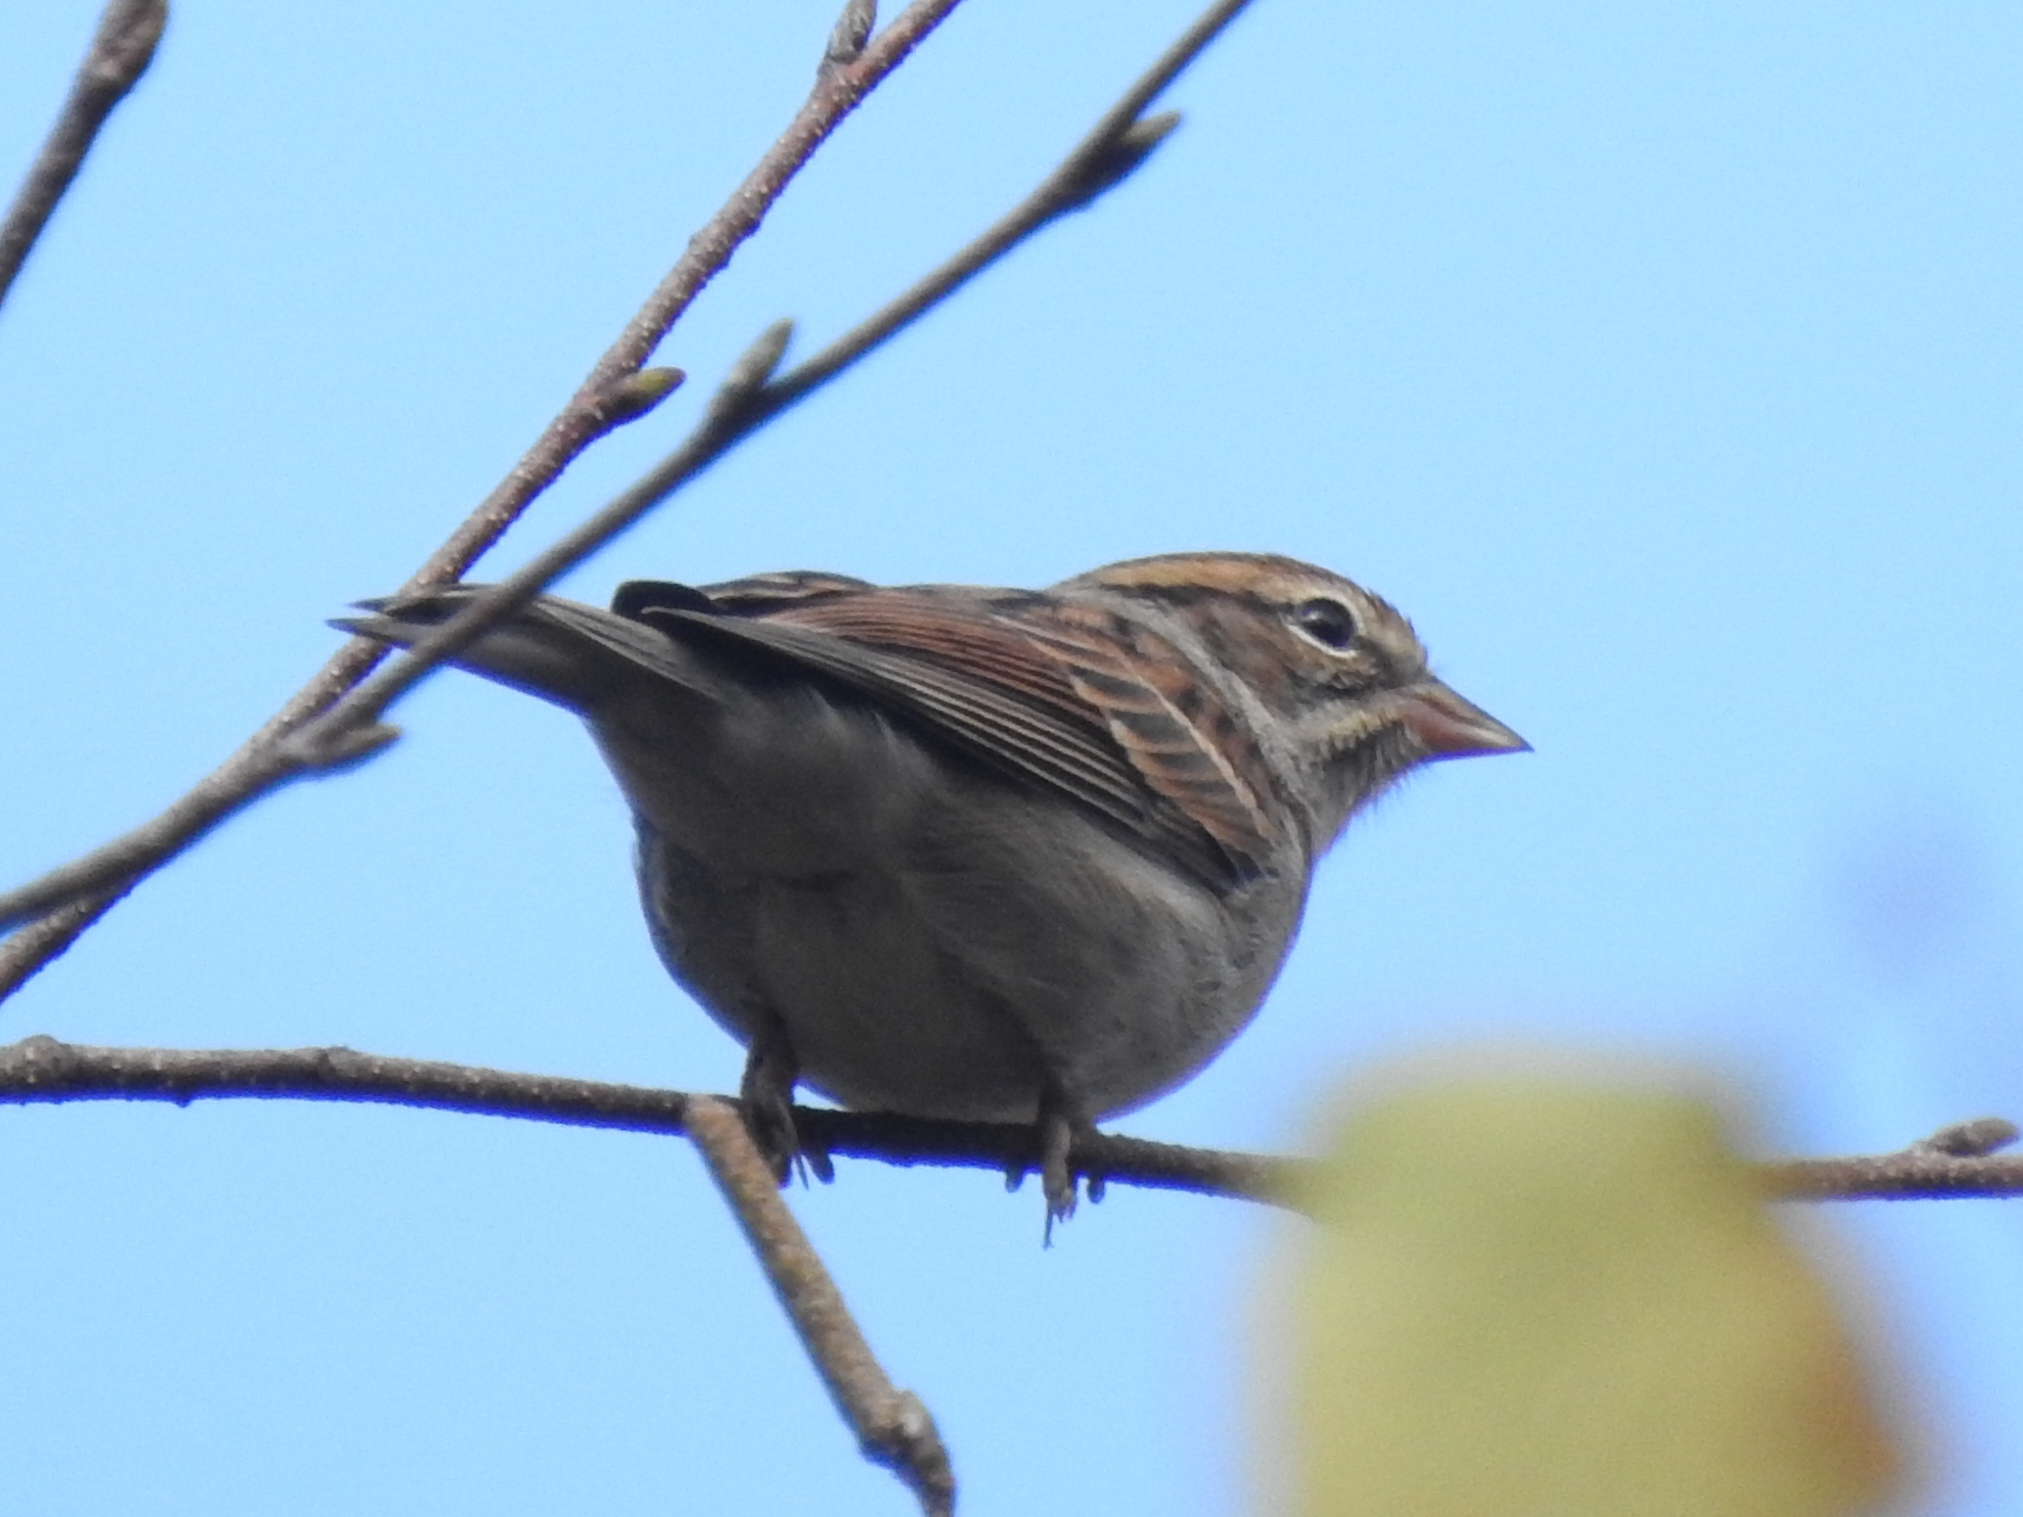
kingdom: Animalia
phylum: Chordata
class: Aves
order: Passeriformes
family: Passerellidae
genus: Spizella
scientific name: Spizella passerina
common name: Chipping sparrow
